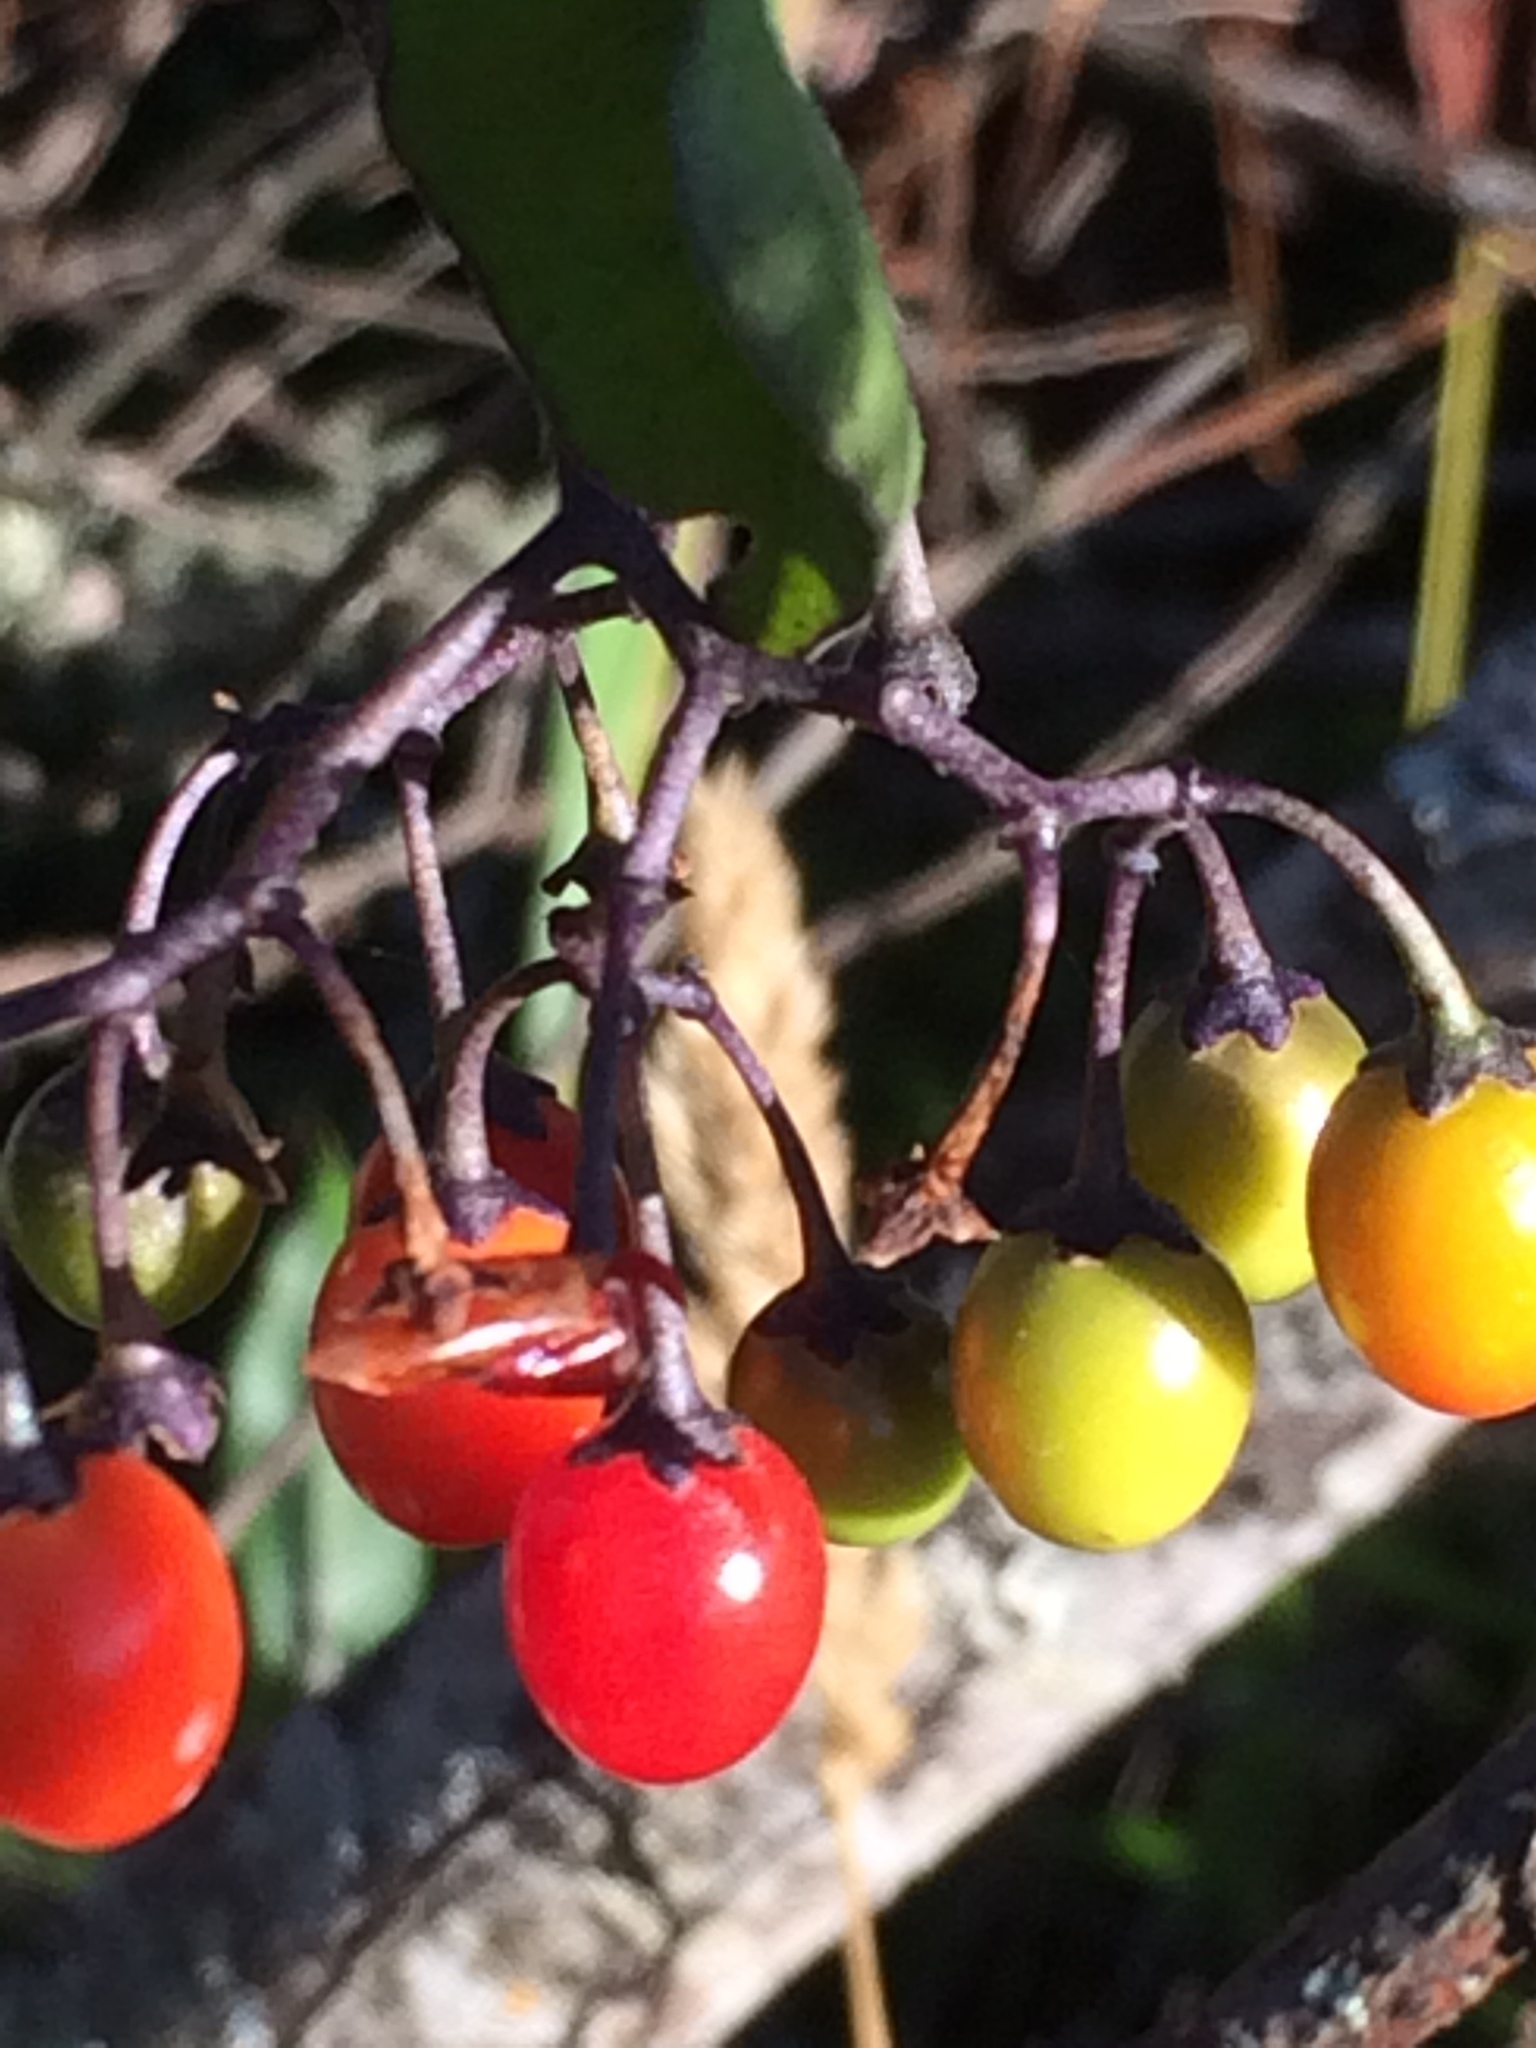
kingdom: Plantae
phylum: Tracheophyta
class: Magnoliopsida
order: Solanales
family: Solanaceae
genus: Solanum
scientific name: Solanum dulcamara
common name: Climbing nightshade
